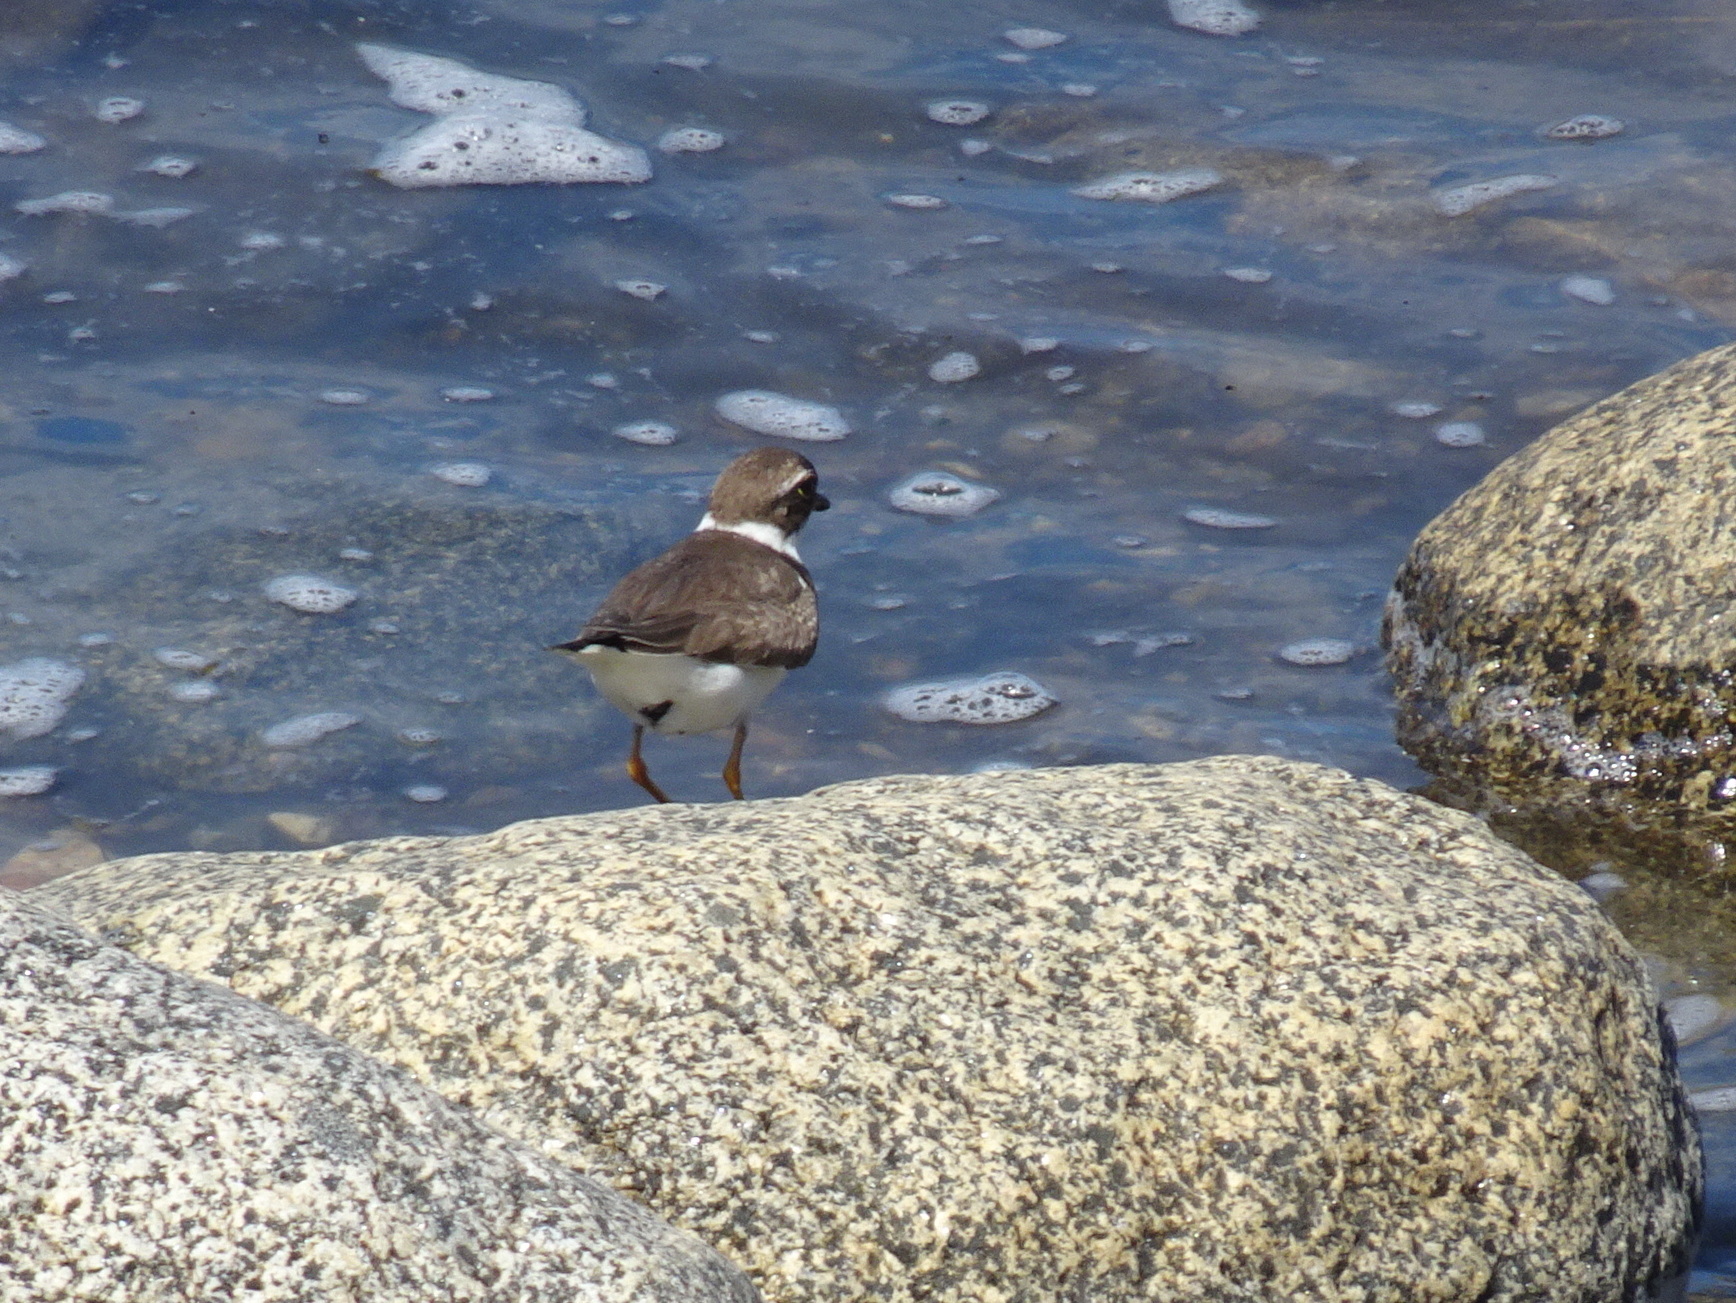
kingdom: Animalia
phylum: Chordata
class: Aves
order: Charadriiformes
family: Charadriidae
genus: Charadrius
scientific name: Charadrius semipalmatus
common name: Semipalmated plover
